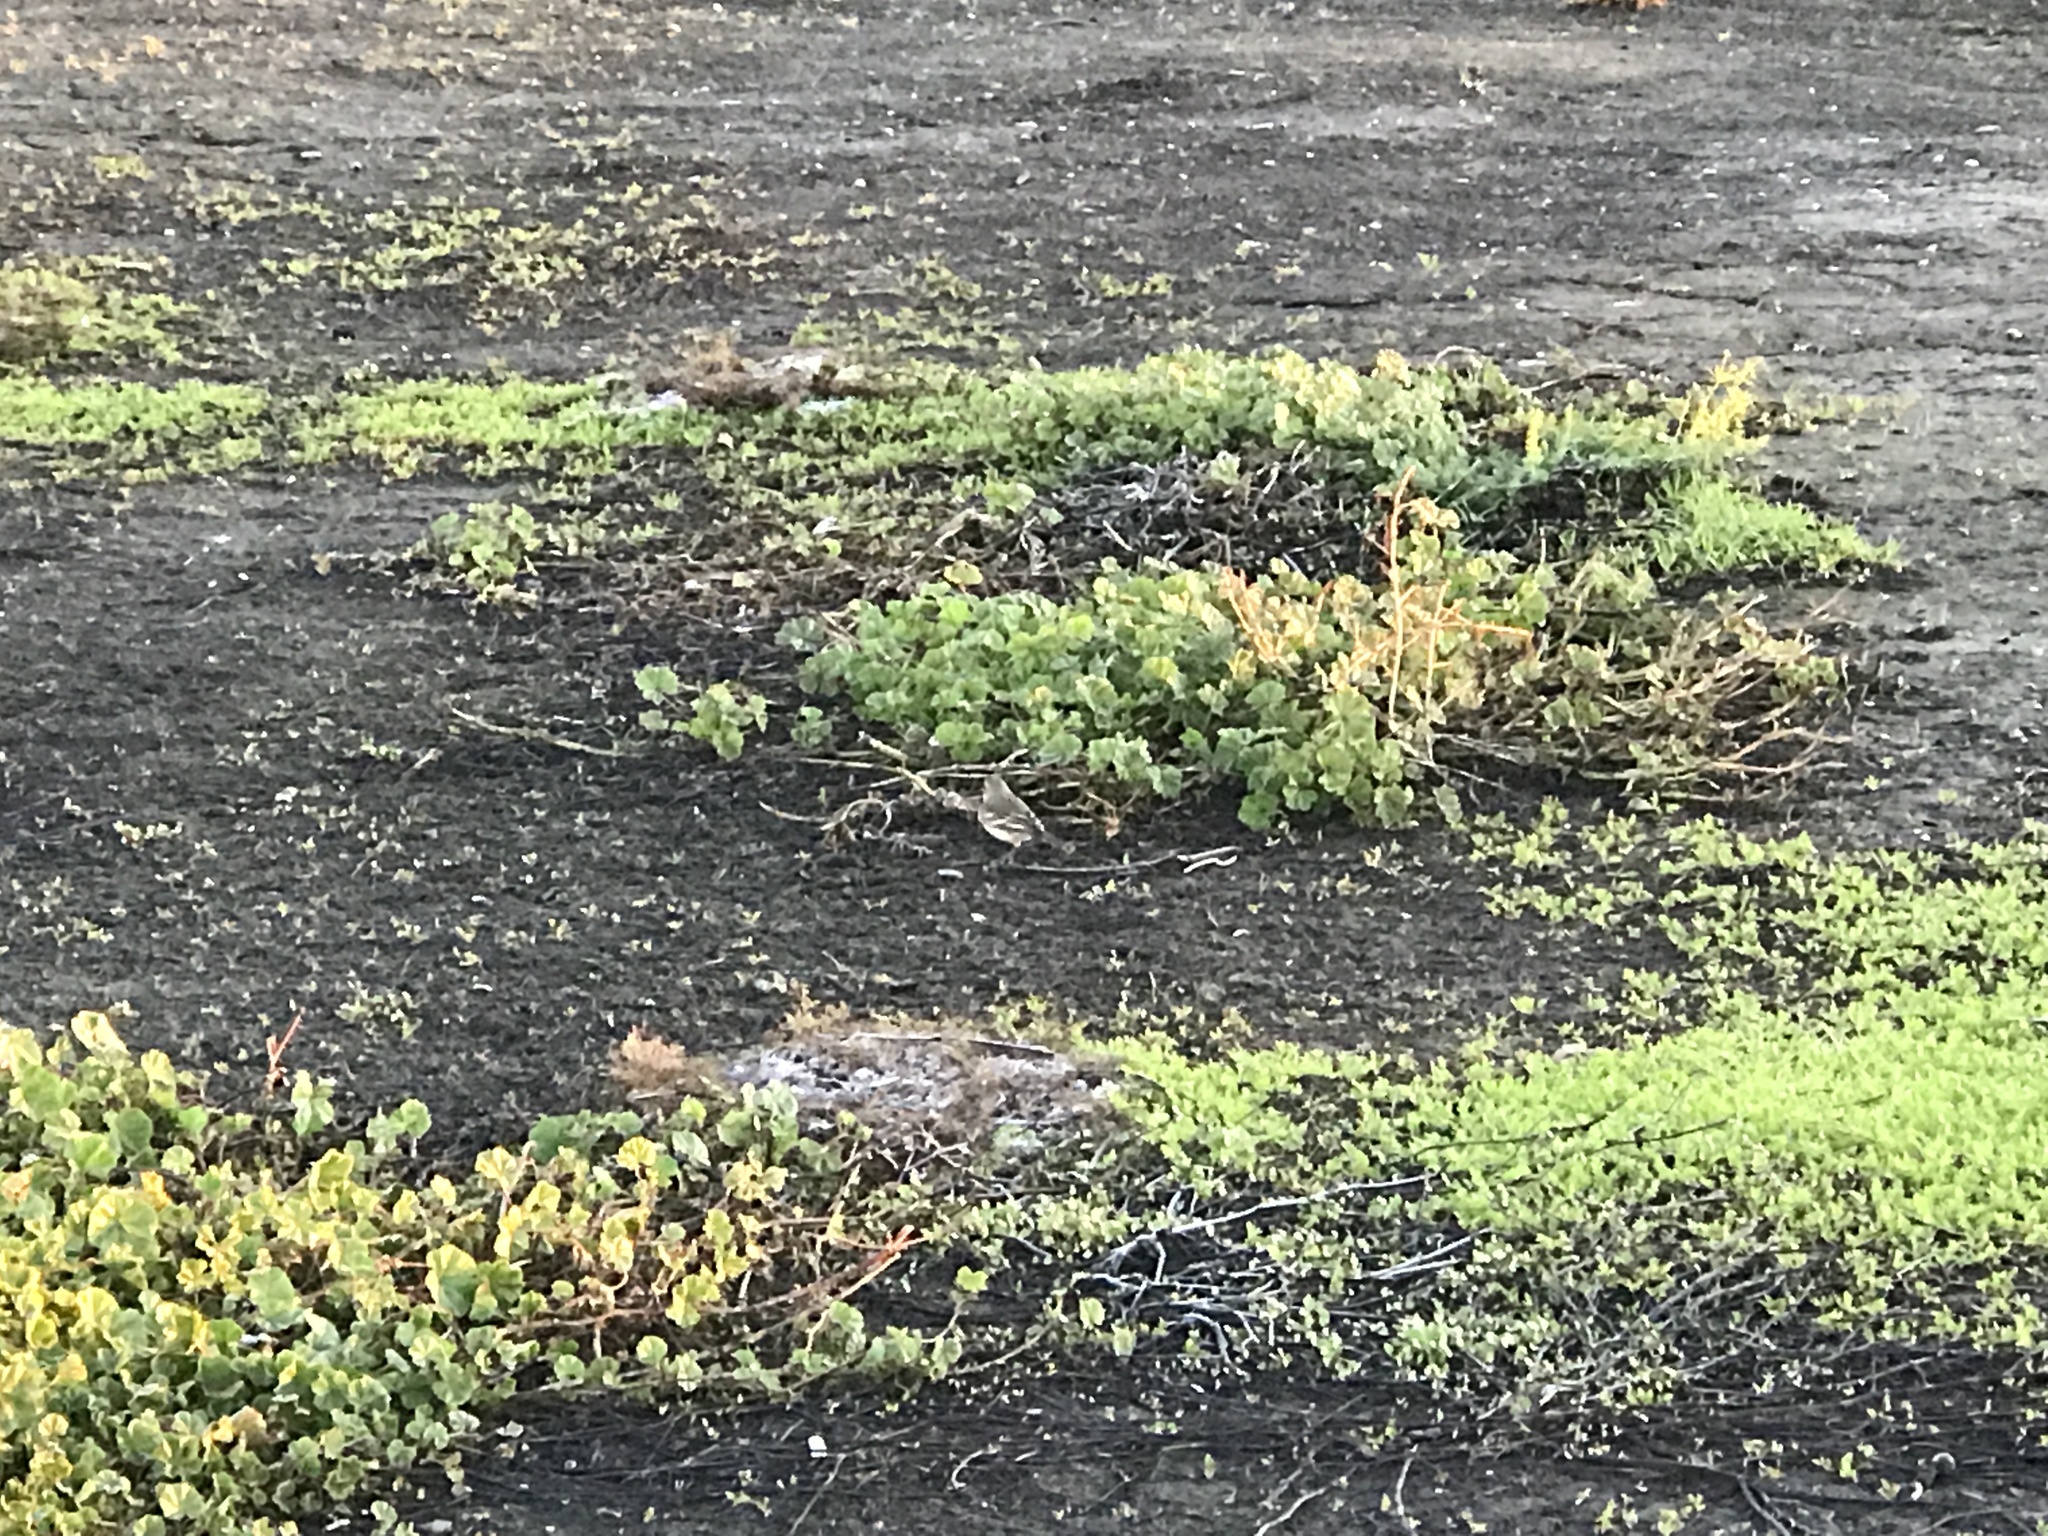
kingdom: Animalia
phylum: Chordata
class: Aves
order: Passeriformes
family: Motacillidae
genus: Anthus
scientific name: Anthus rubescens
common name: Buff-bellied pipit
